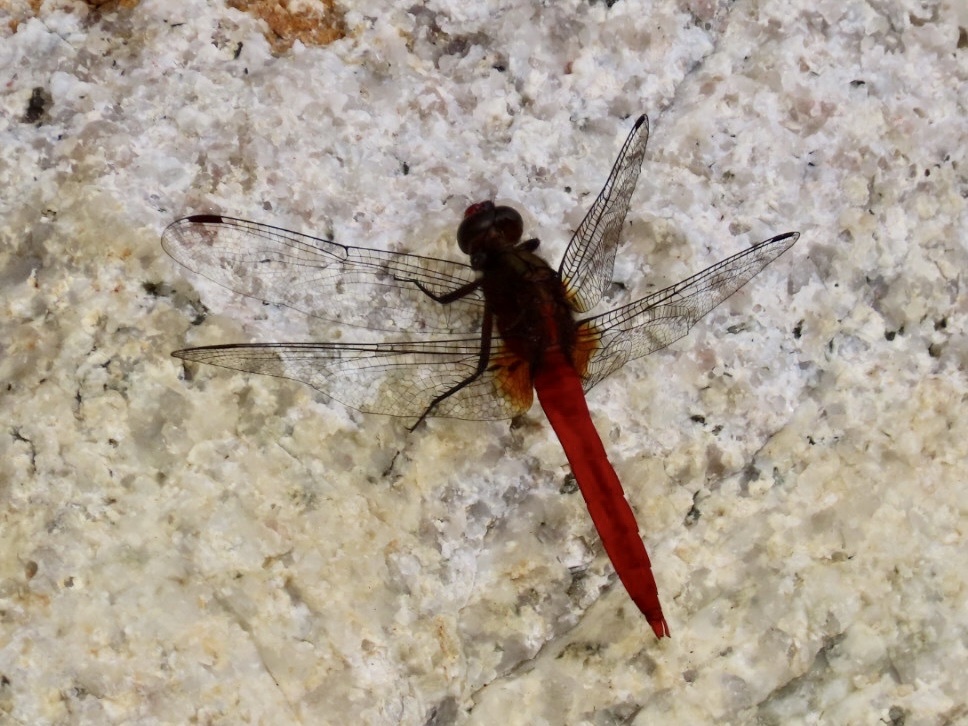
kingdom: Animalia
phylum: Arthropoda
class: Insecta
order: Odonata
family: Libellulidae
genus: Orthetrum
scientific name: Orthetrum chrysis
